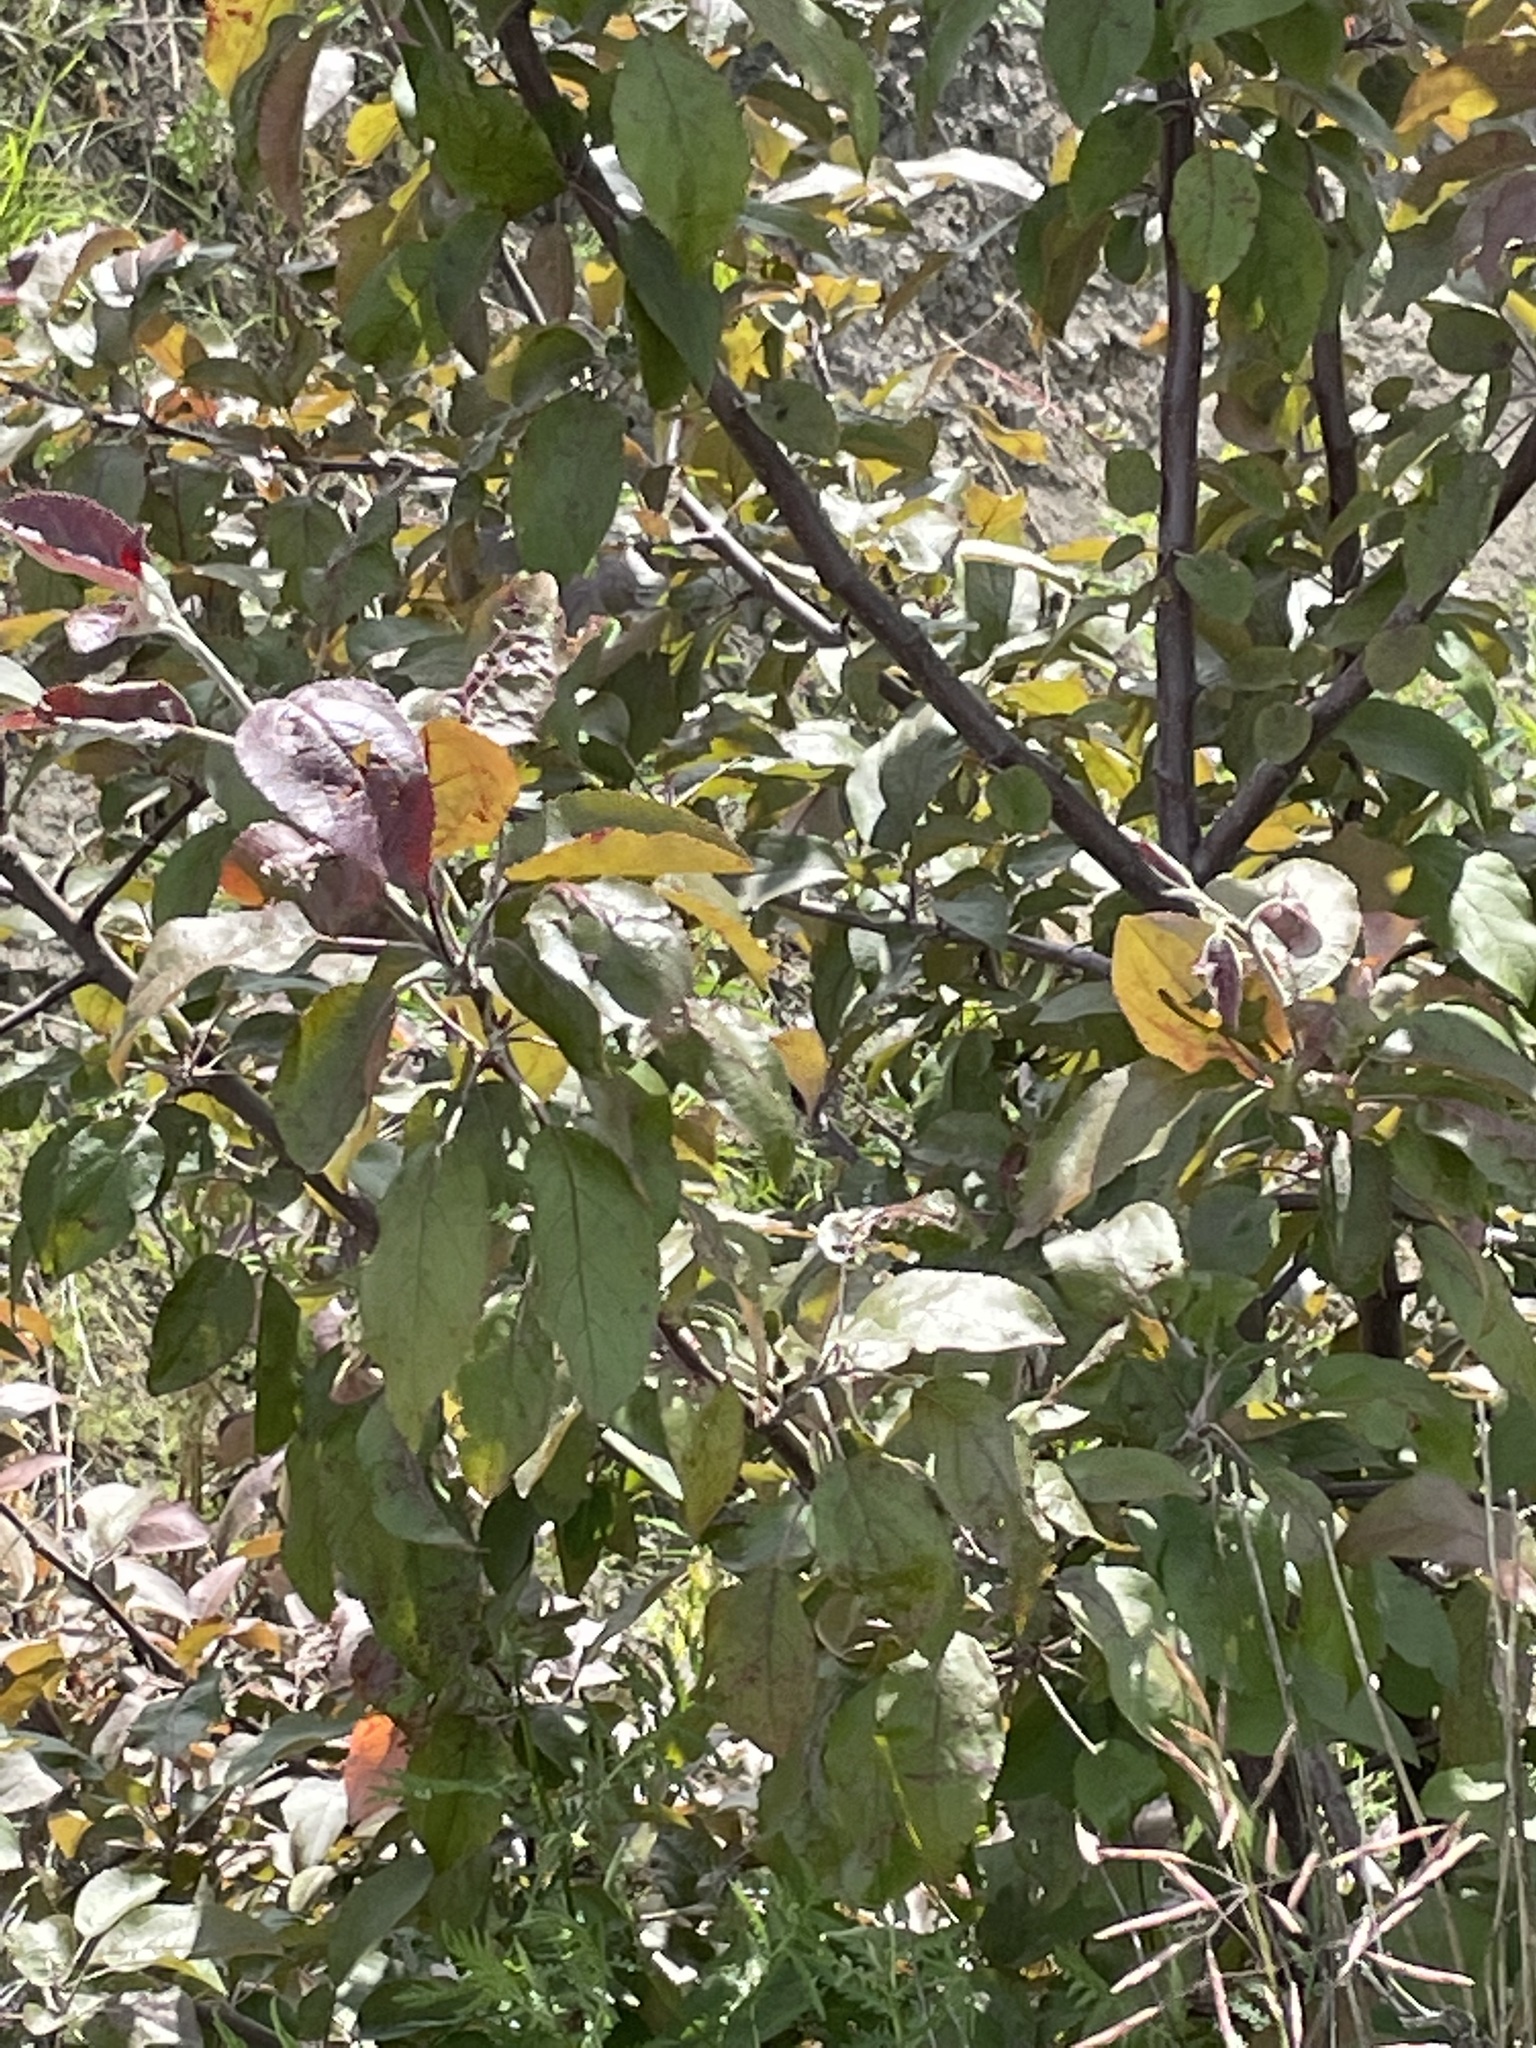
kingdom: Plantae
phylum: Tracheophyta
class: Magnoliopsida
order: Rosales
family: Rosaceae
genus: Malus
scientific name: Malus domestica
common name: Apple
